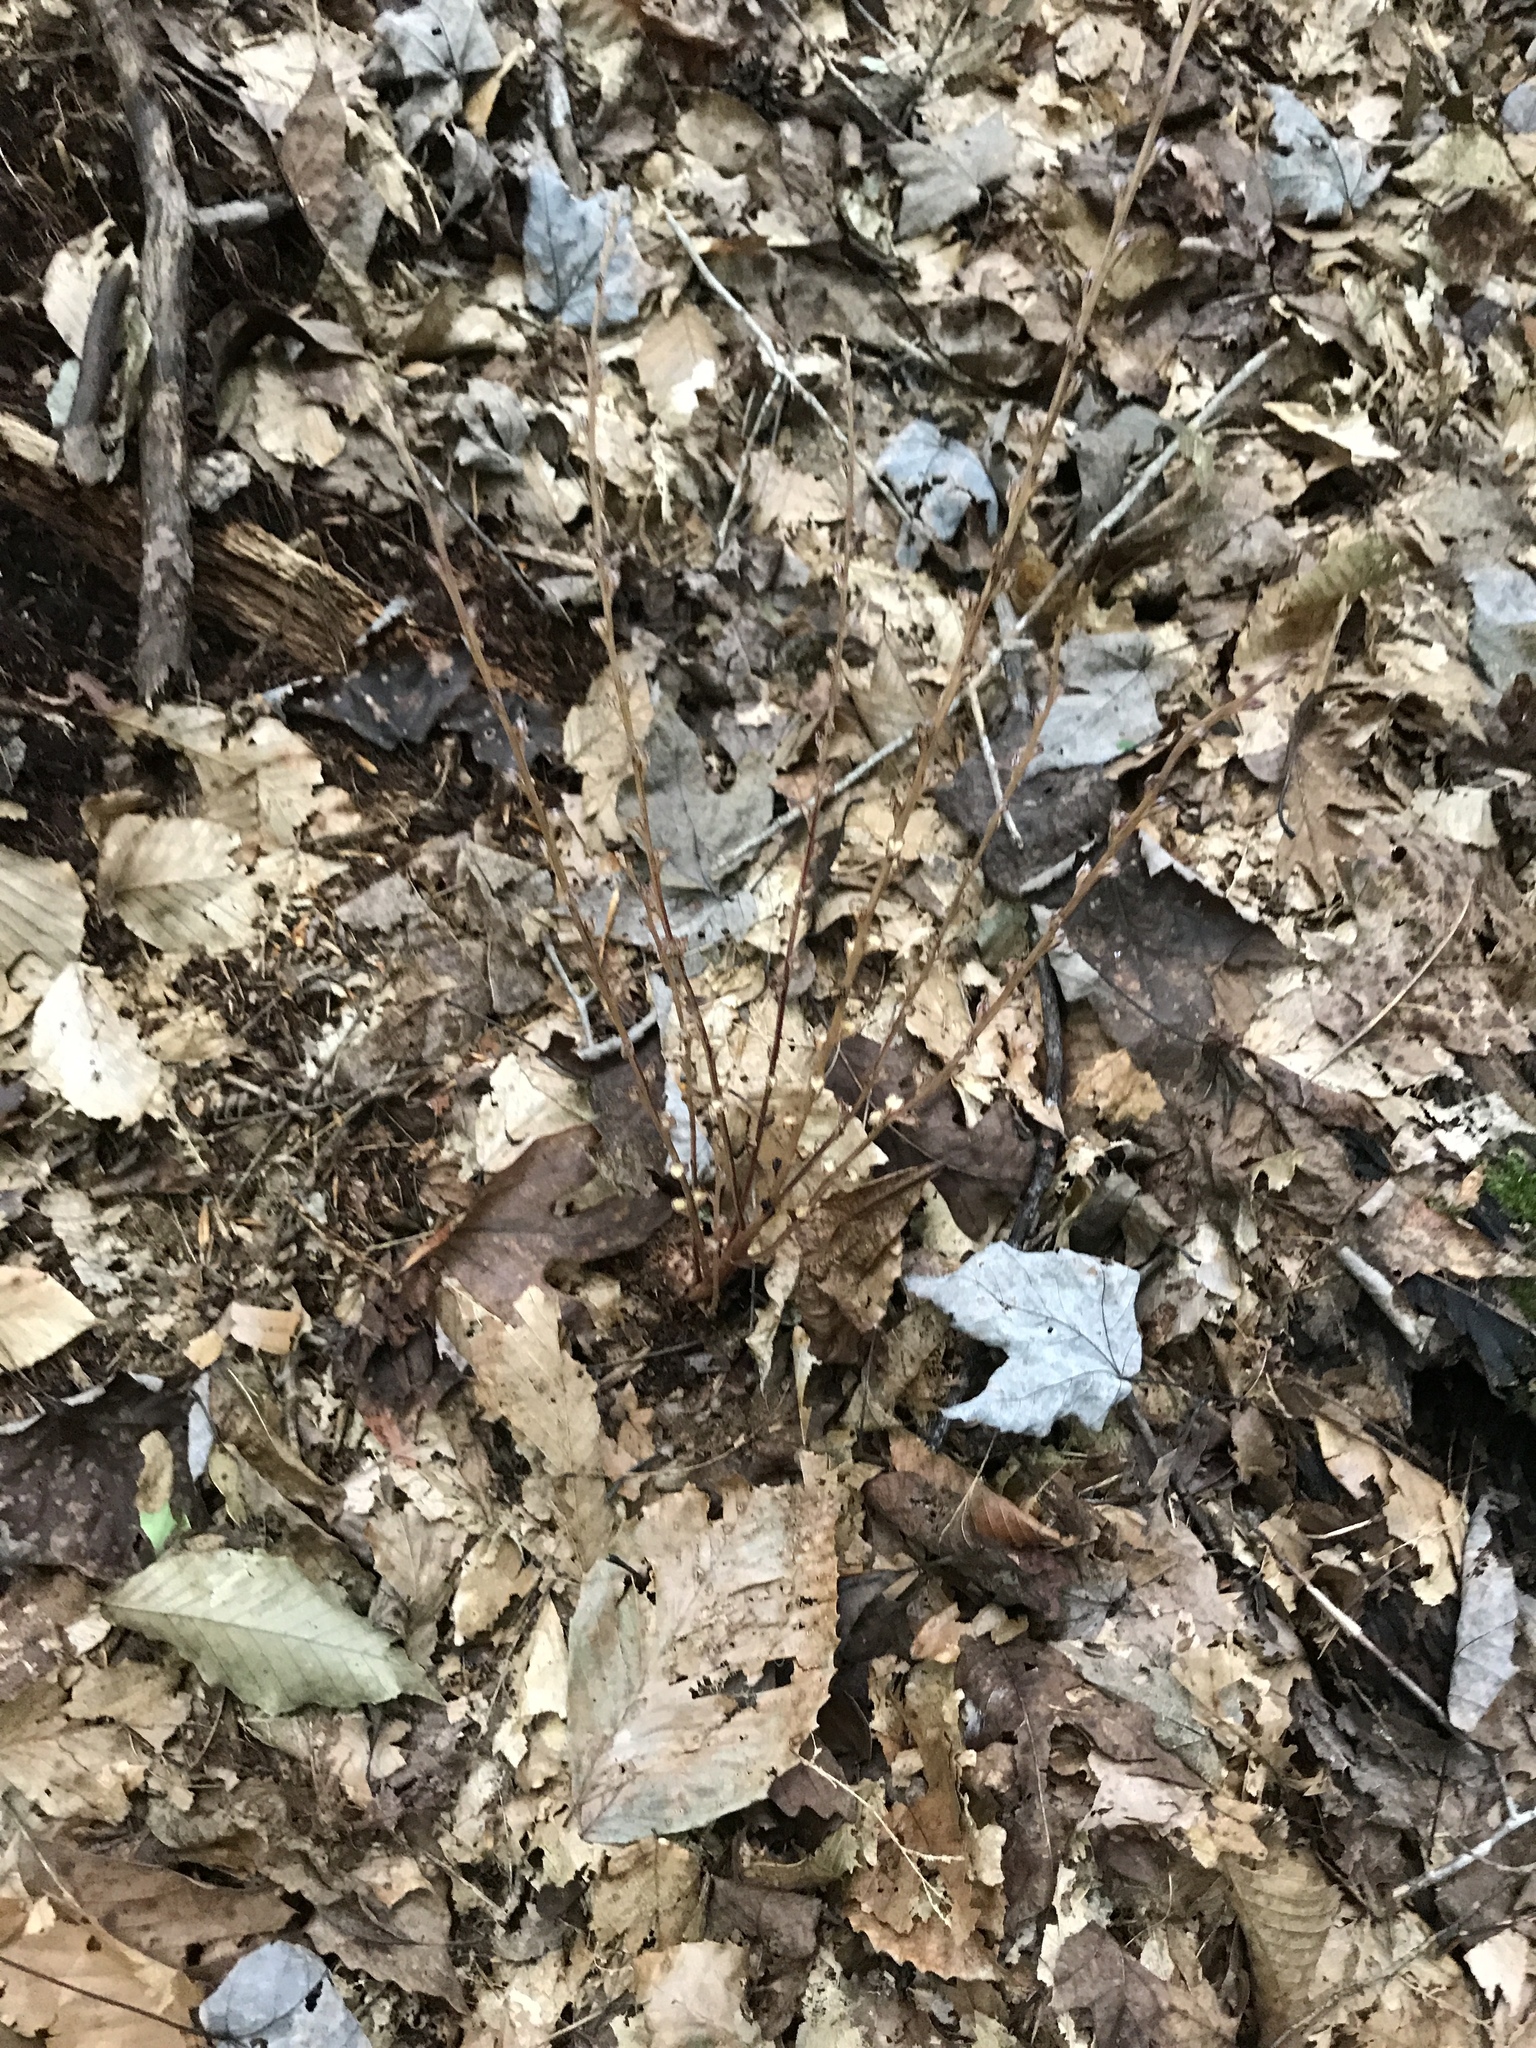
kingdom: Plantae
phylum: Tracheophyta
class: Magnoliopsida
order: Lamiales
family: Orobanchaceae
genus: Epifagus
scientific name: Epifagus virginiana
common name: Beechdrops
